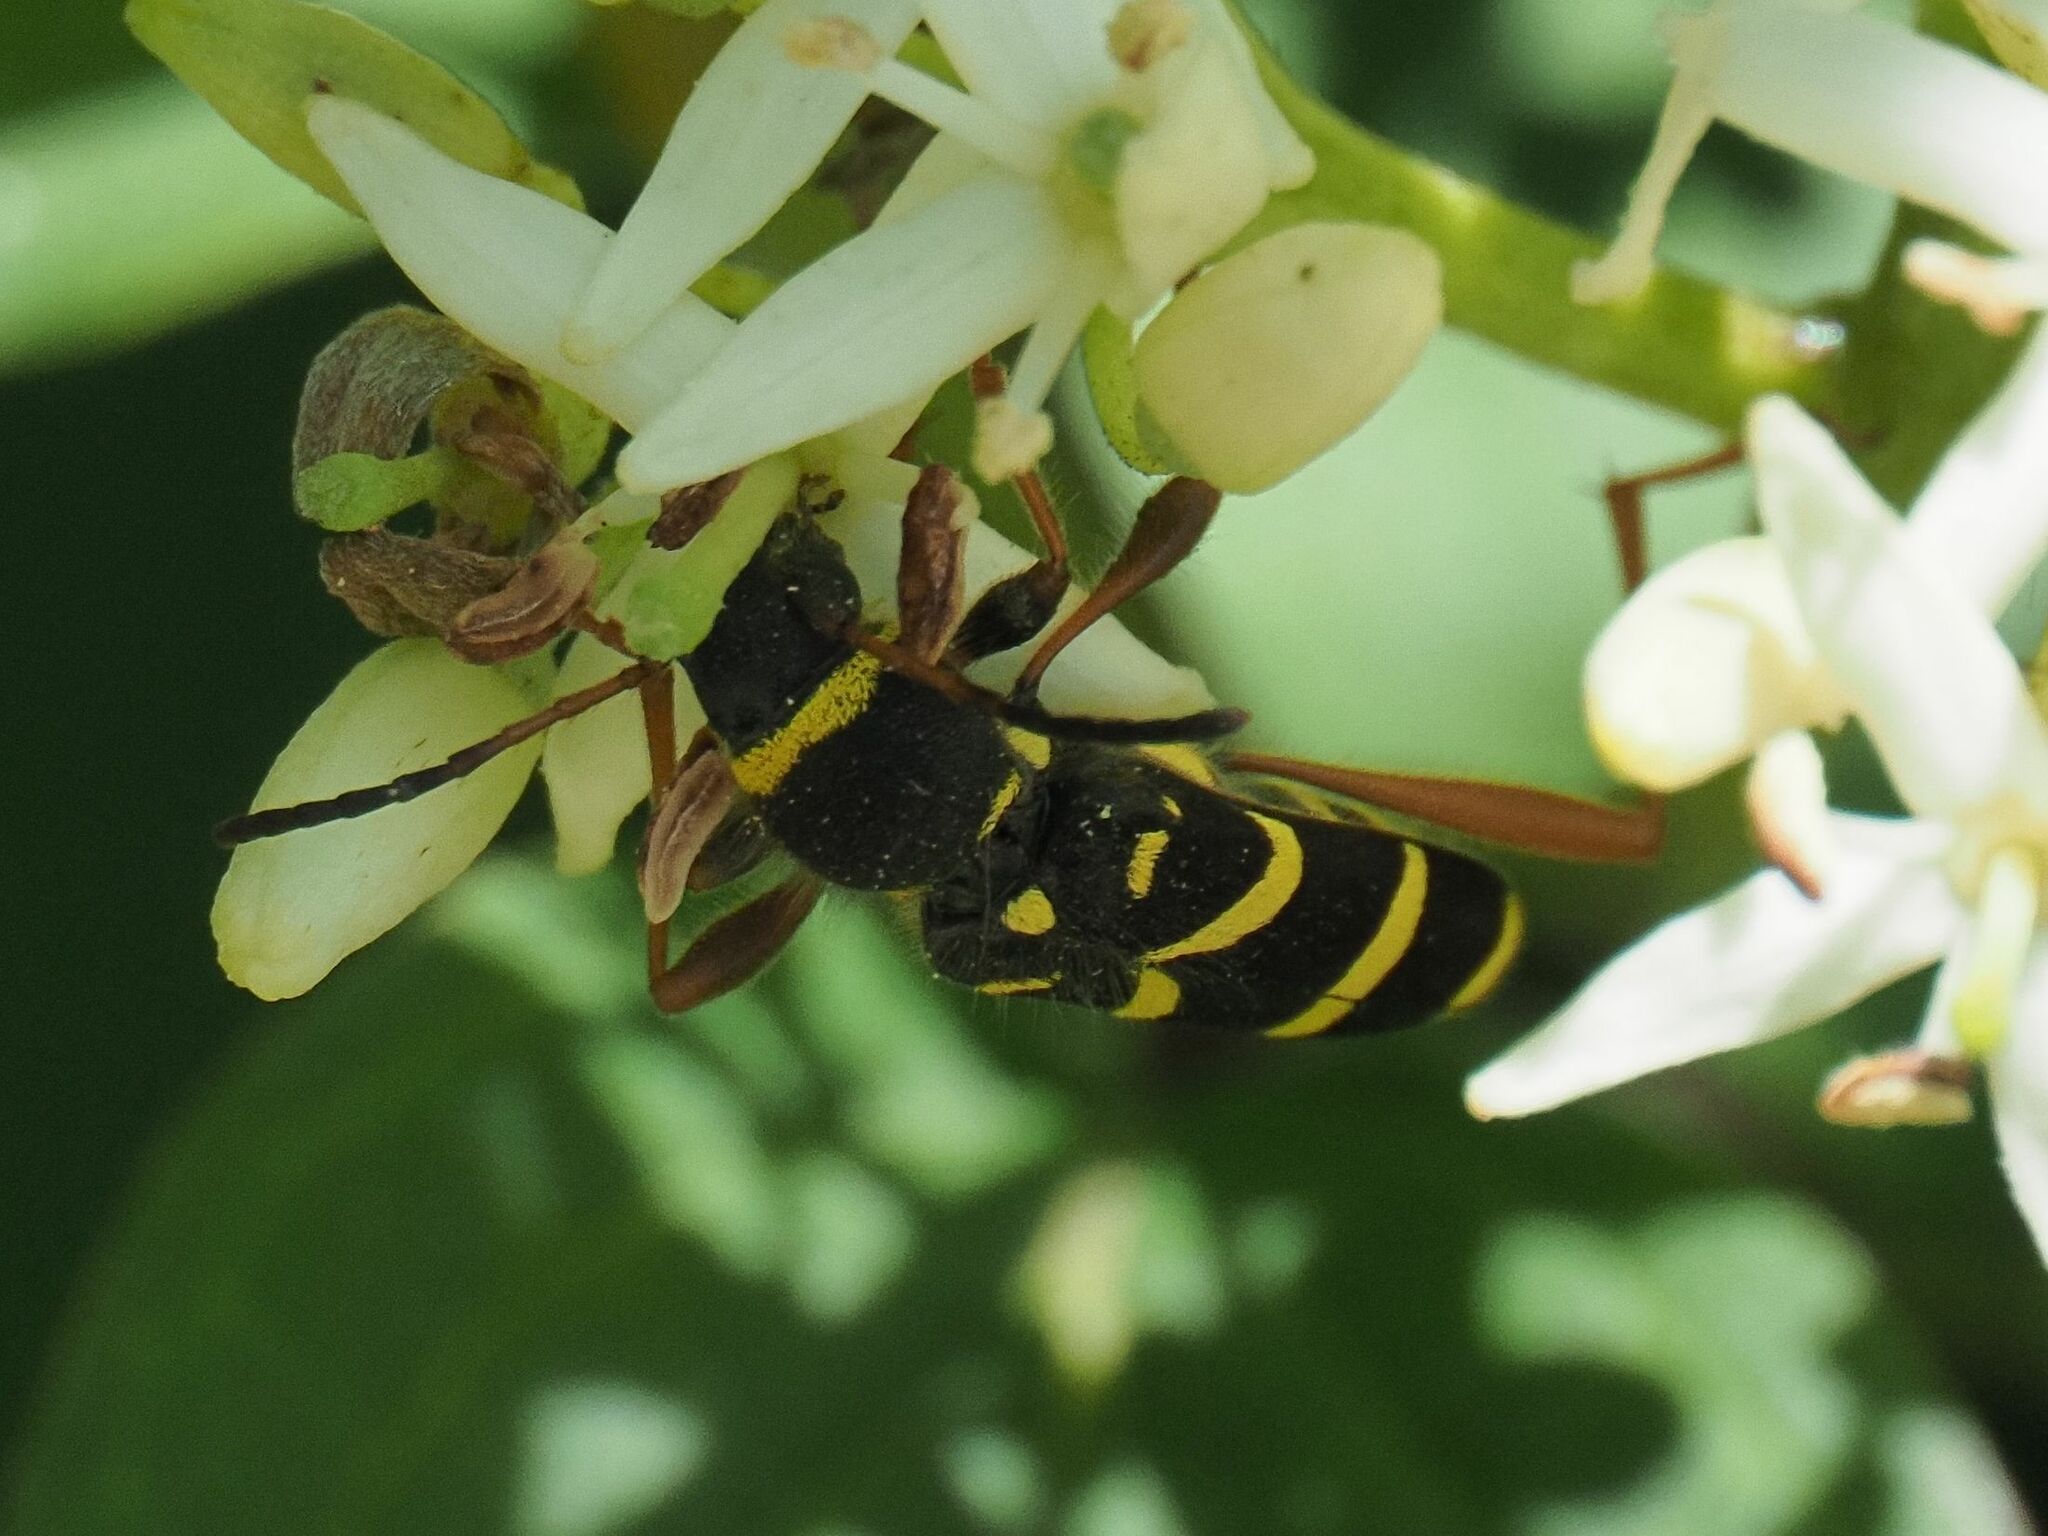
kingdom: Animalia
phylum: Arthropoda
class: Insecta
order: Coleoptera
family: Cerambycidae
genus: Clytus
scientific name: Clytus arietis
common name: Wasp beetle
